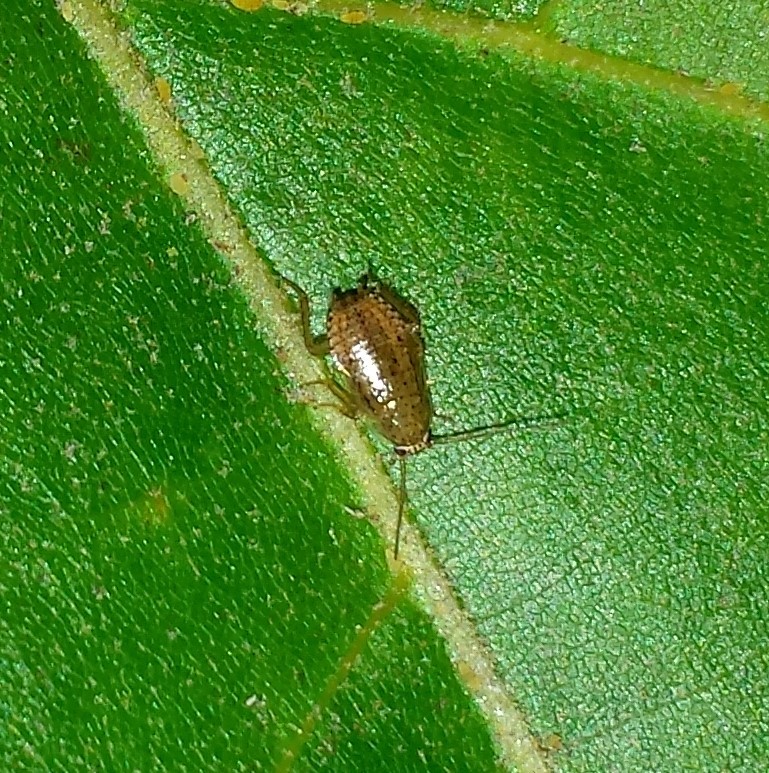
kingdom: Animalia
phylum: Arthropoda
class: Insecta
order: Blattodea
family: Ectobiidae
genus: Ectobius
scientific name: Ectobius pallidus
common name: Tawny cockroach
